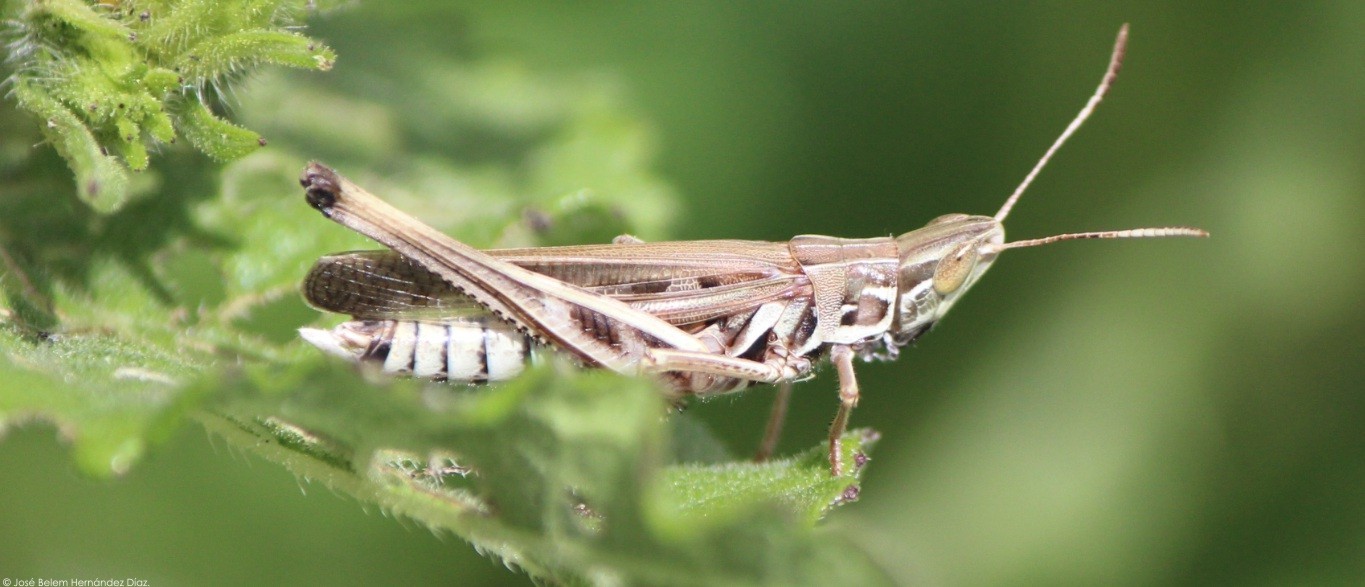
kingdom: Animalia
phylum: Arthropoda
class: Insecta
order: Orthoptera
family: Acrididae
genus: Syrbula
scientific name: Syrbula admirabilis
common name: Handsome grasshopper
